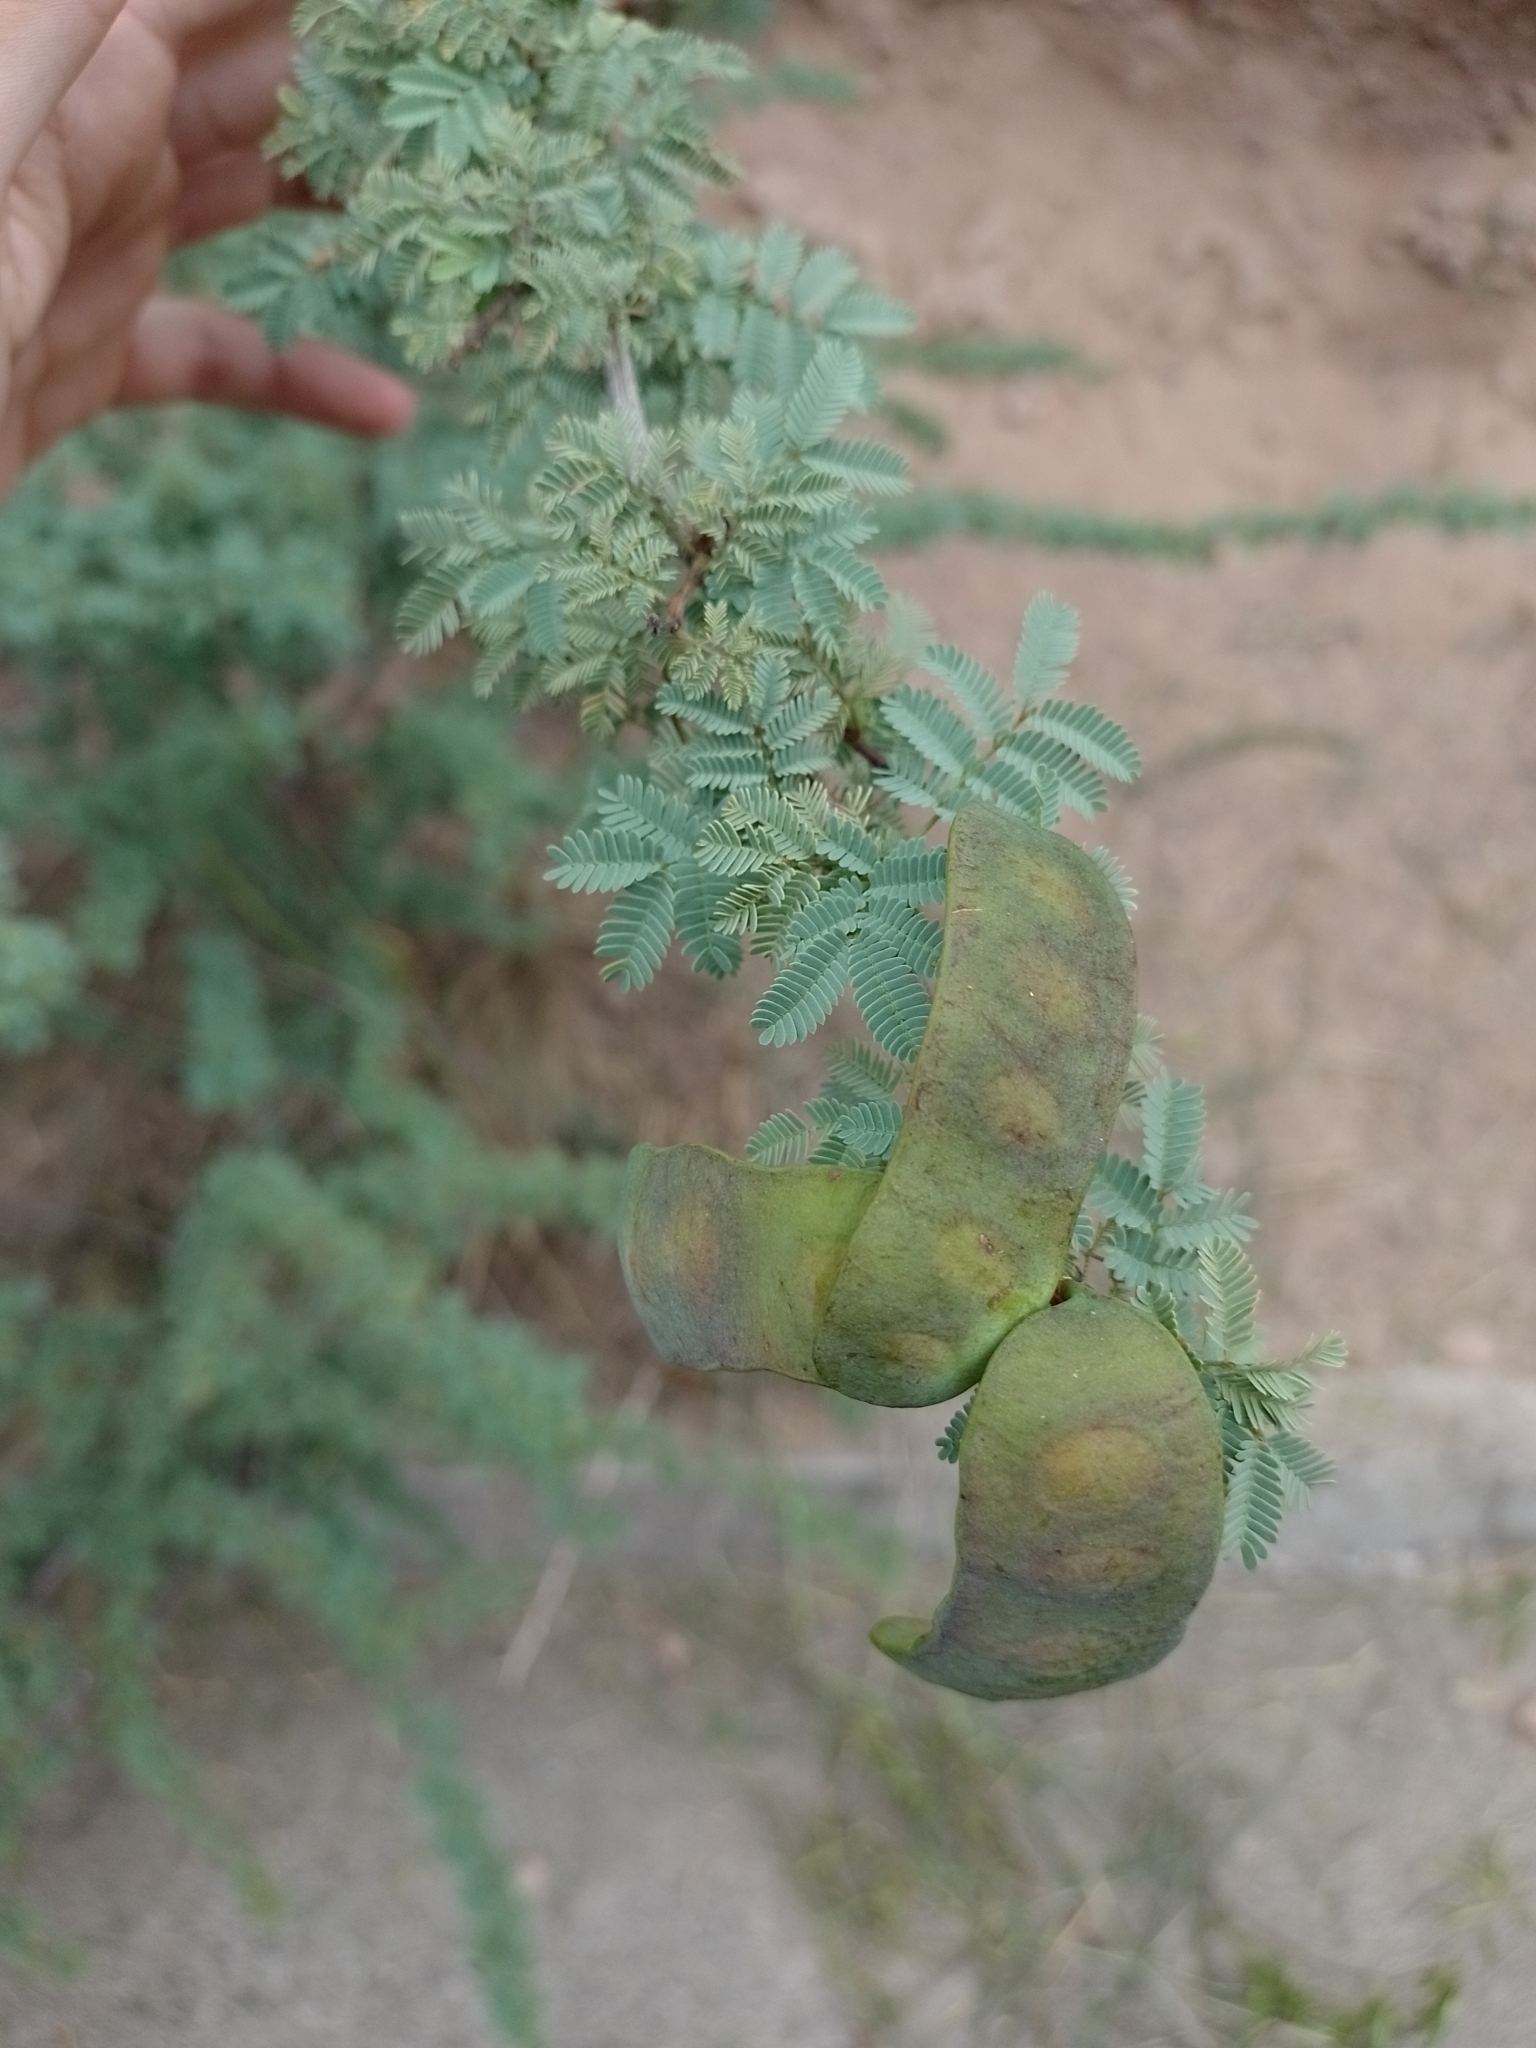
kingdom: Plantae
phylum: Tracheophyta
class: Magnoliopsida
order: Fabales
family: Fabaceae
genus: Senegalia
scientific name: Senegalia gilliesii
